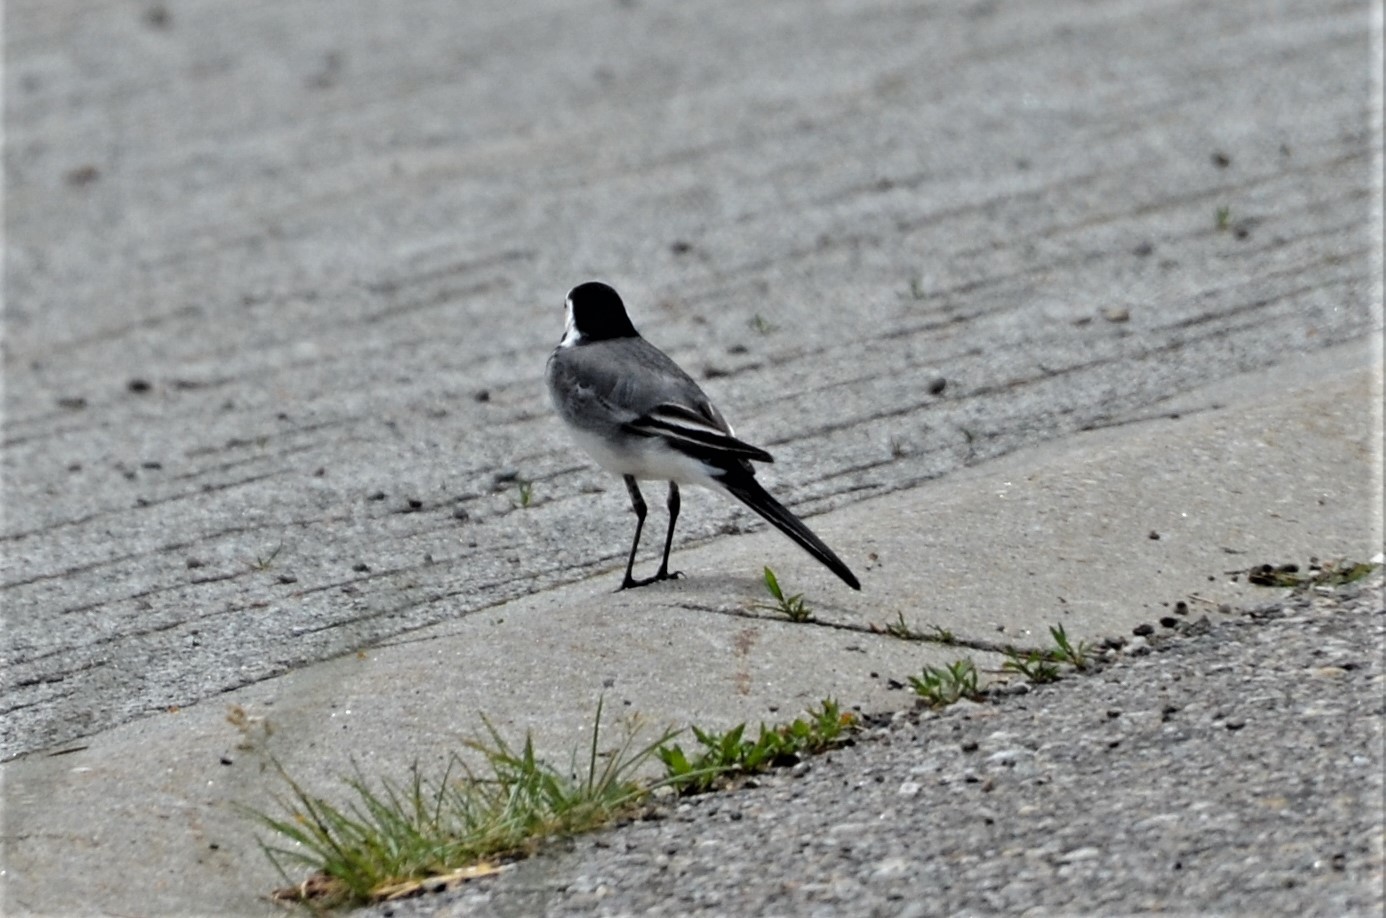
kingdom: Animalia
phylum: Chordata
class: Aves
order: Passeriformes
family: Motacillidae
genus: Motacilla
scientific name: Motacilla alba
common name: White wagtail
